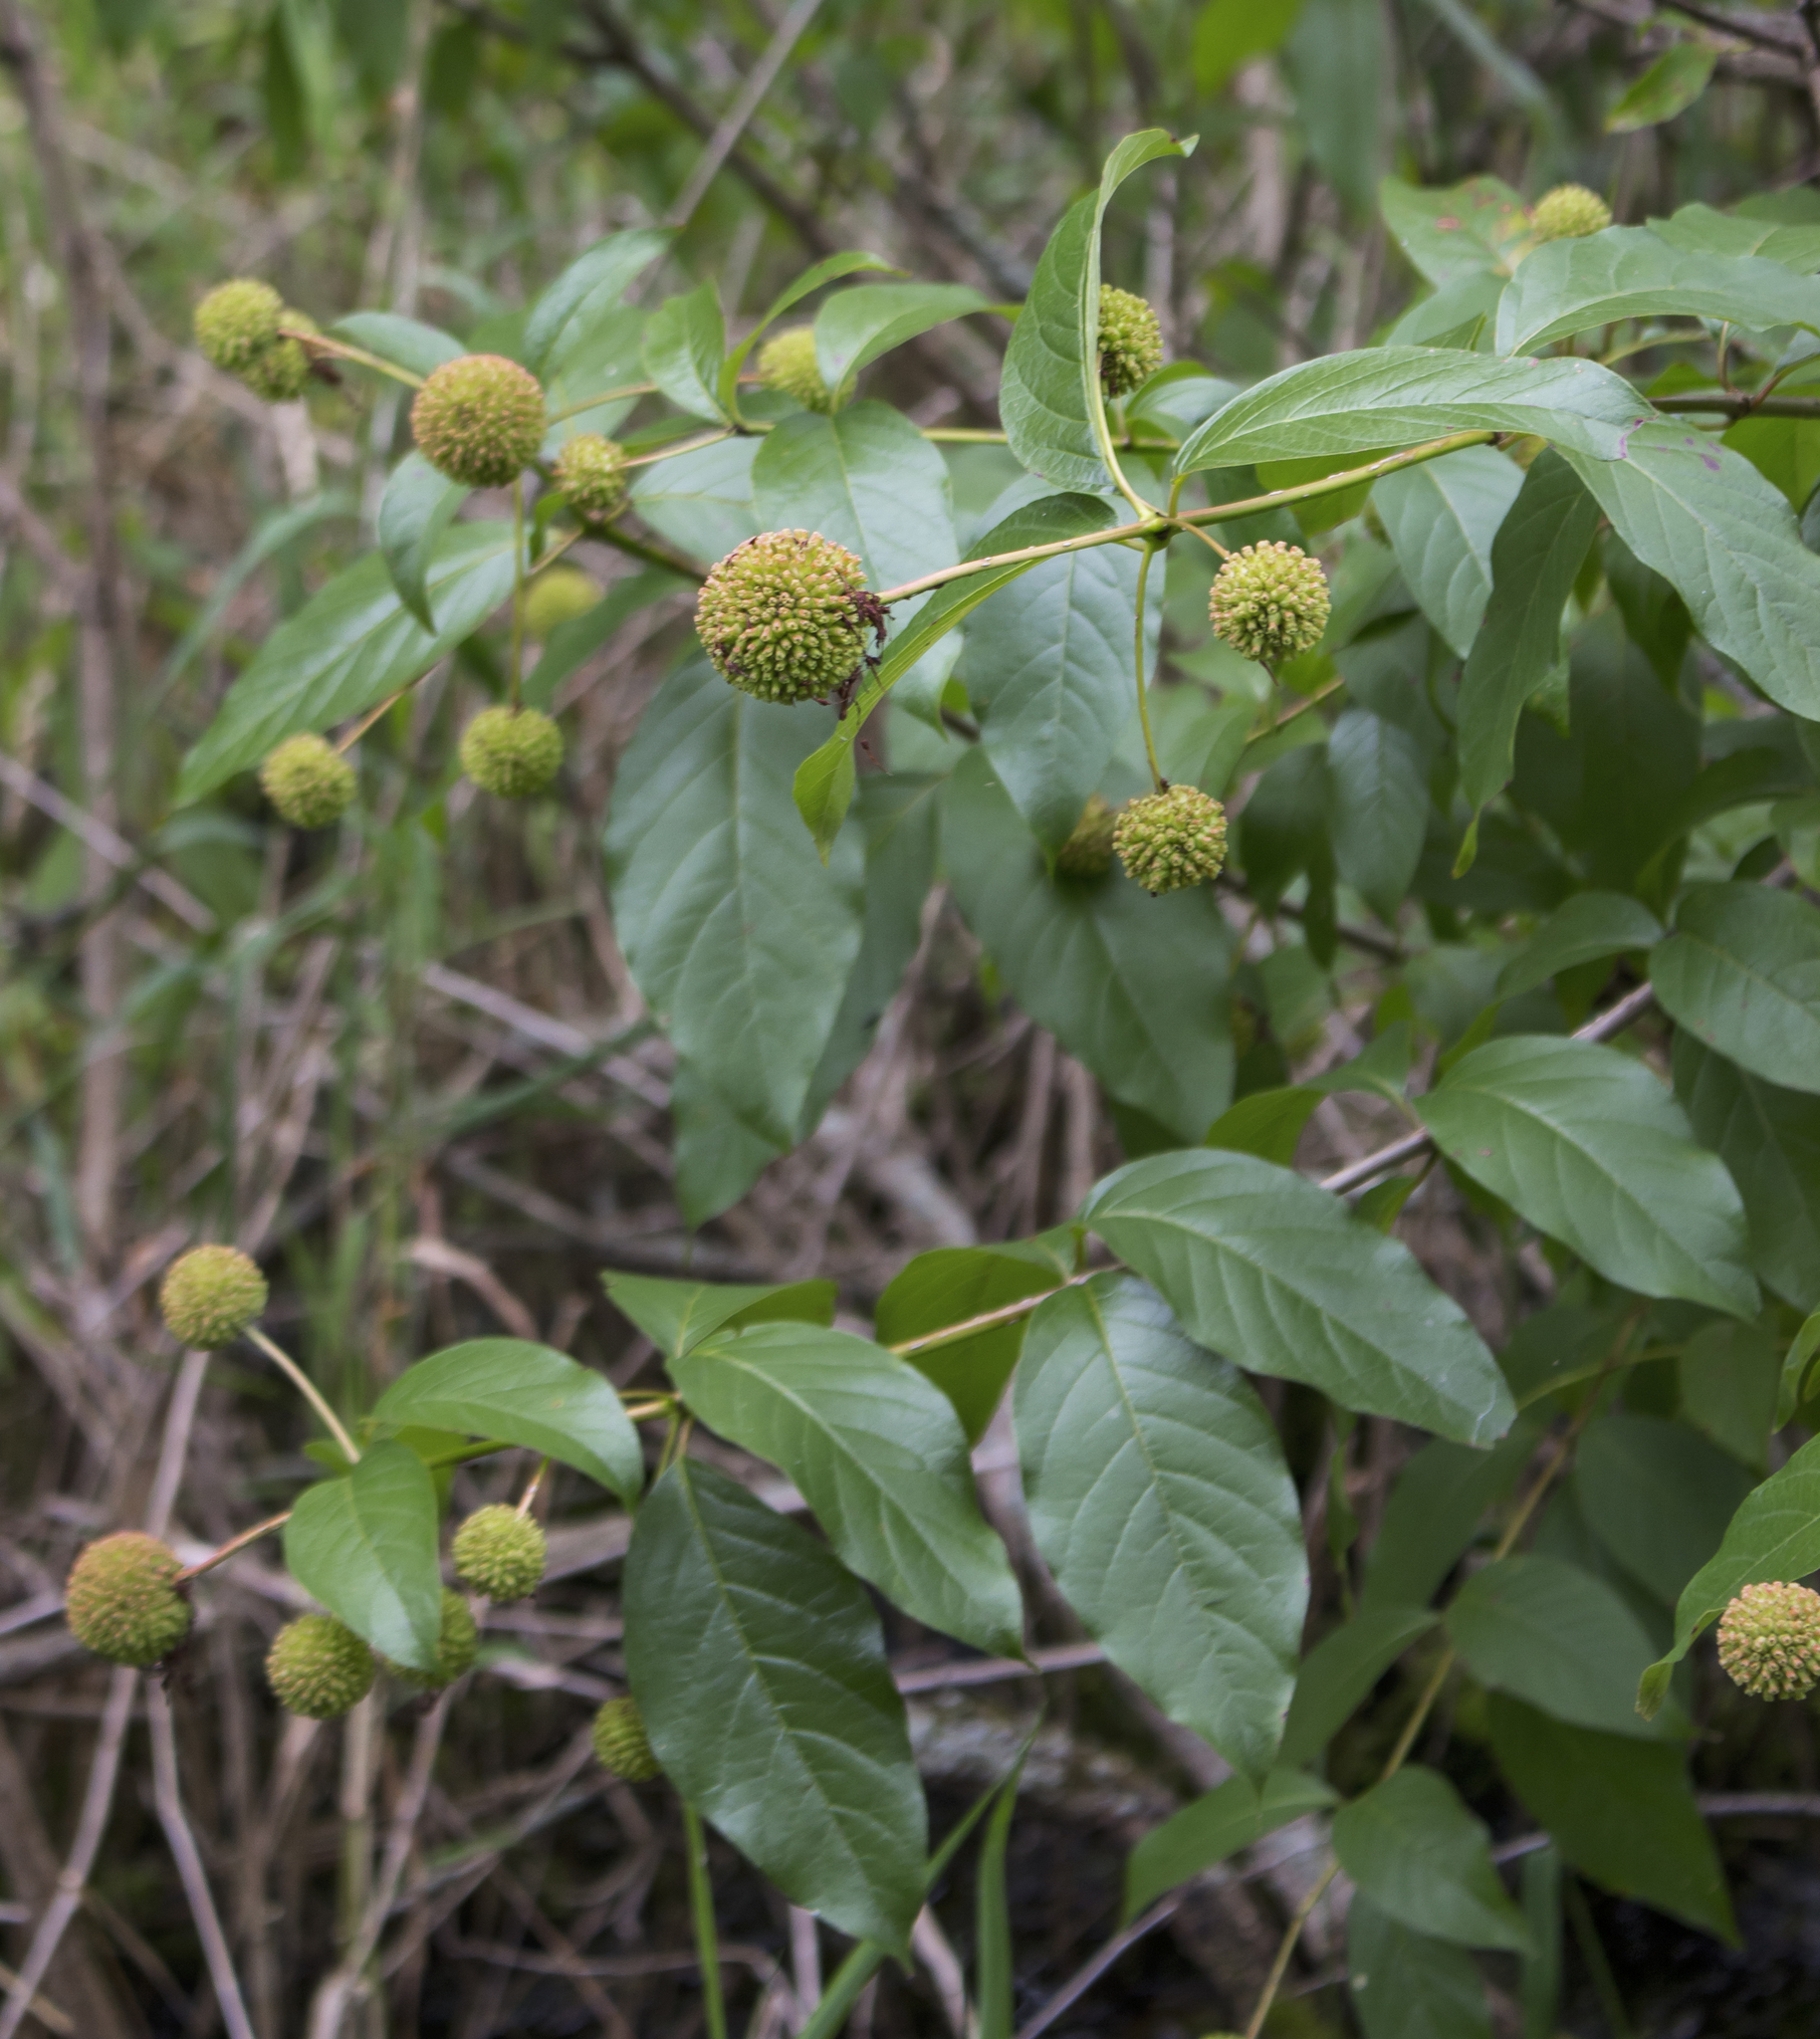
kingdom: Plantae
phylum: Tracheophyta
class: Magnoliopsida
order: Gentianales
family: Rubiaceae
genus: Cephalanthus
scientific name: Cephalanthus occidentalis
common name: Button-willow
